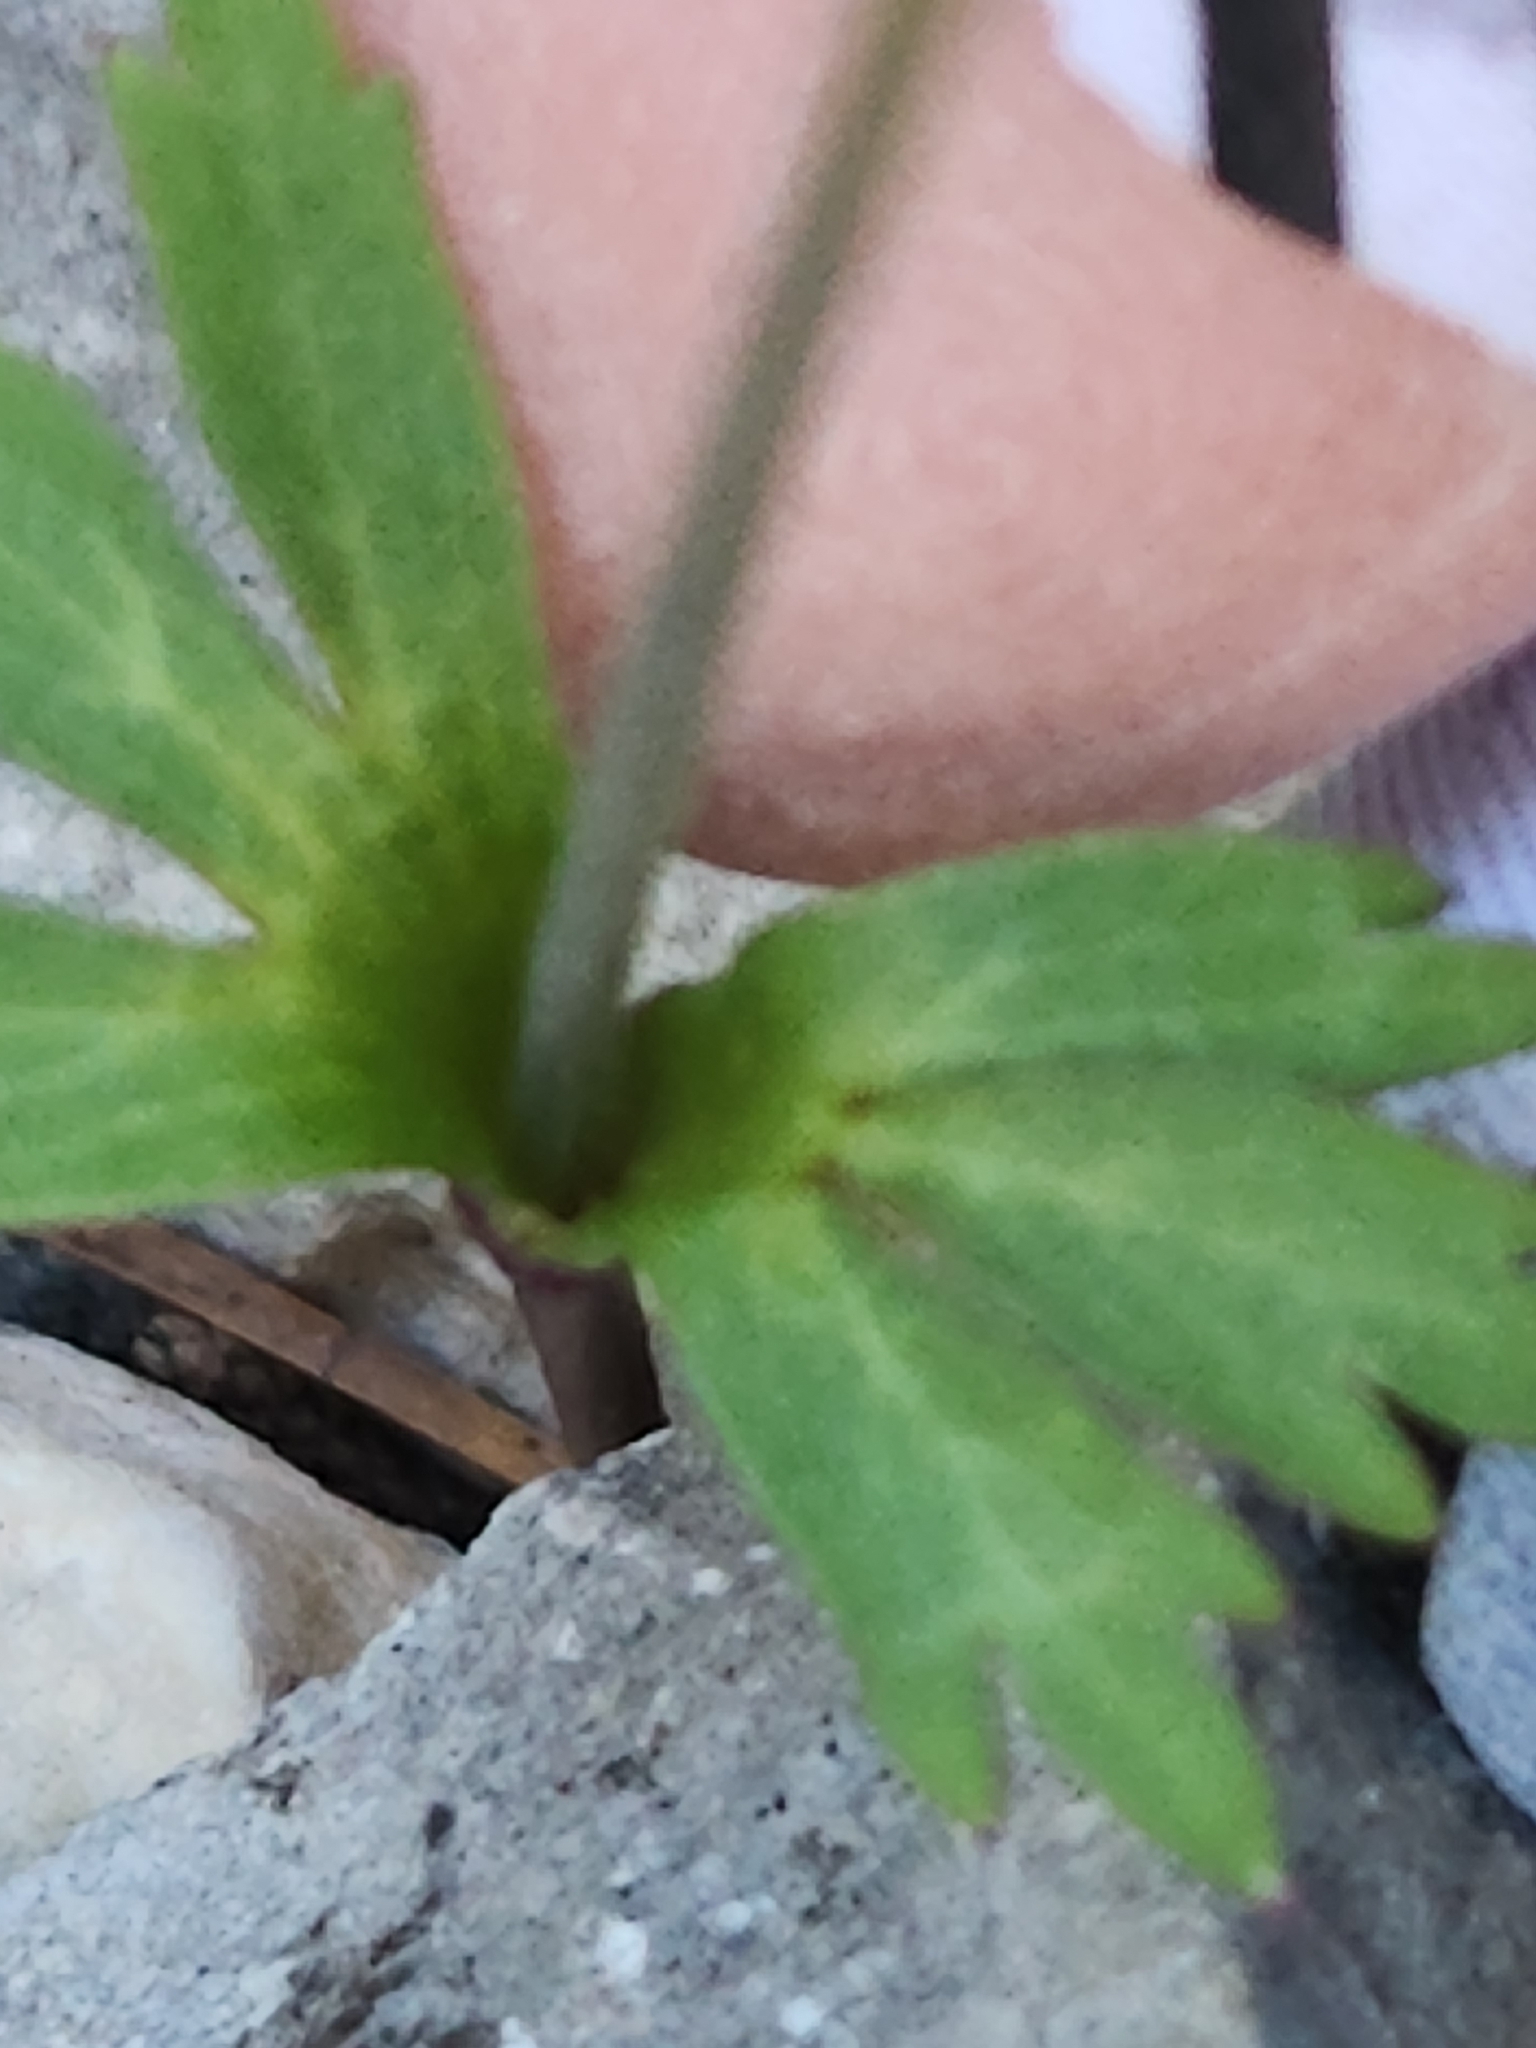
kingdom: Plantae
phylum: Tracheophyta
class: Magnoliopsida
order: Ranunculales
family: Ranunculaceae
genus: Anemone
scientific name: Anemone edwardsiana
